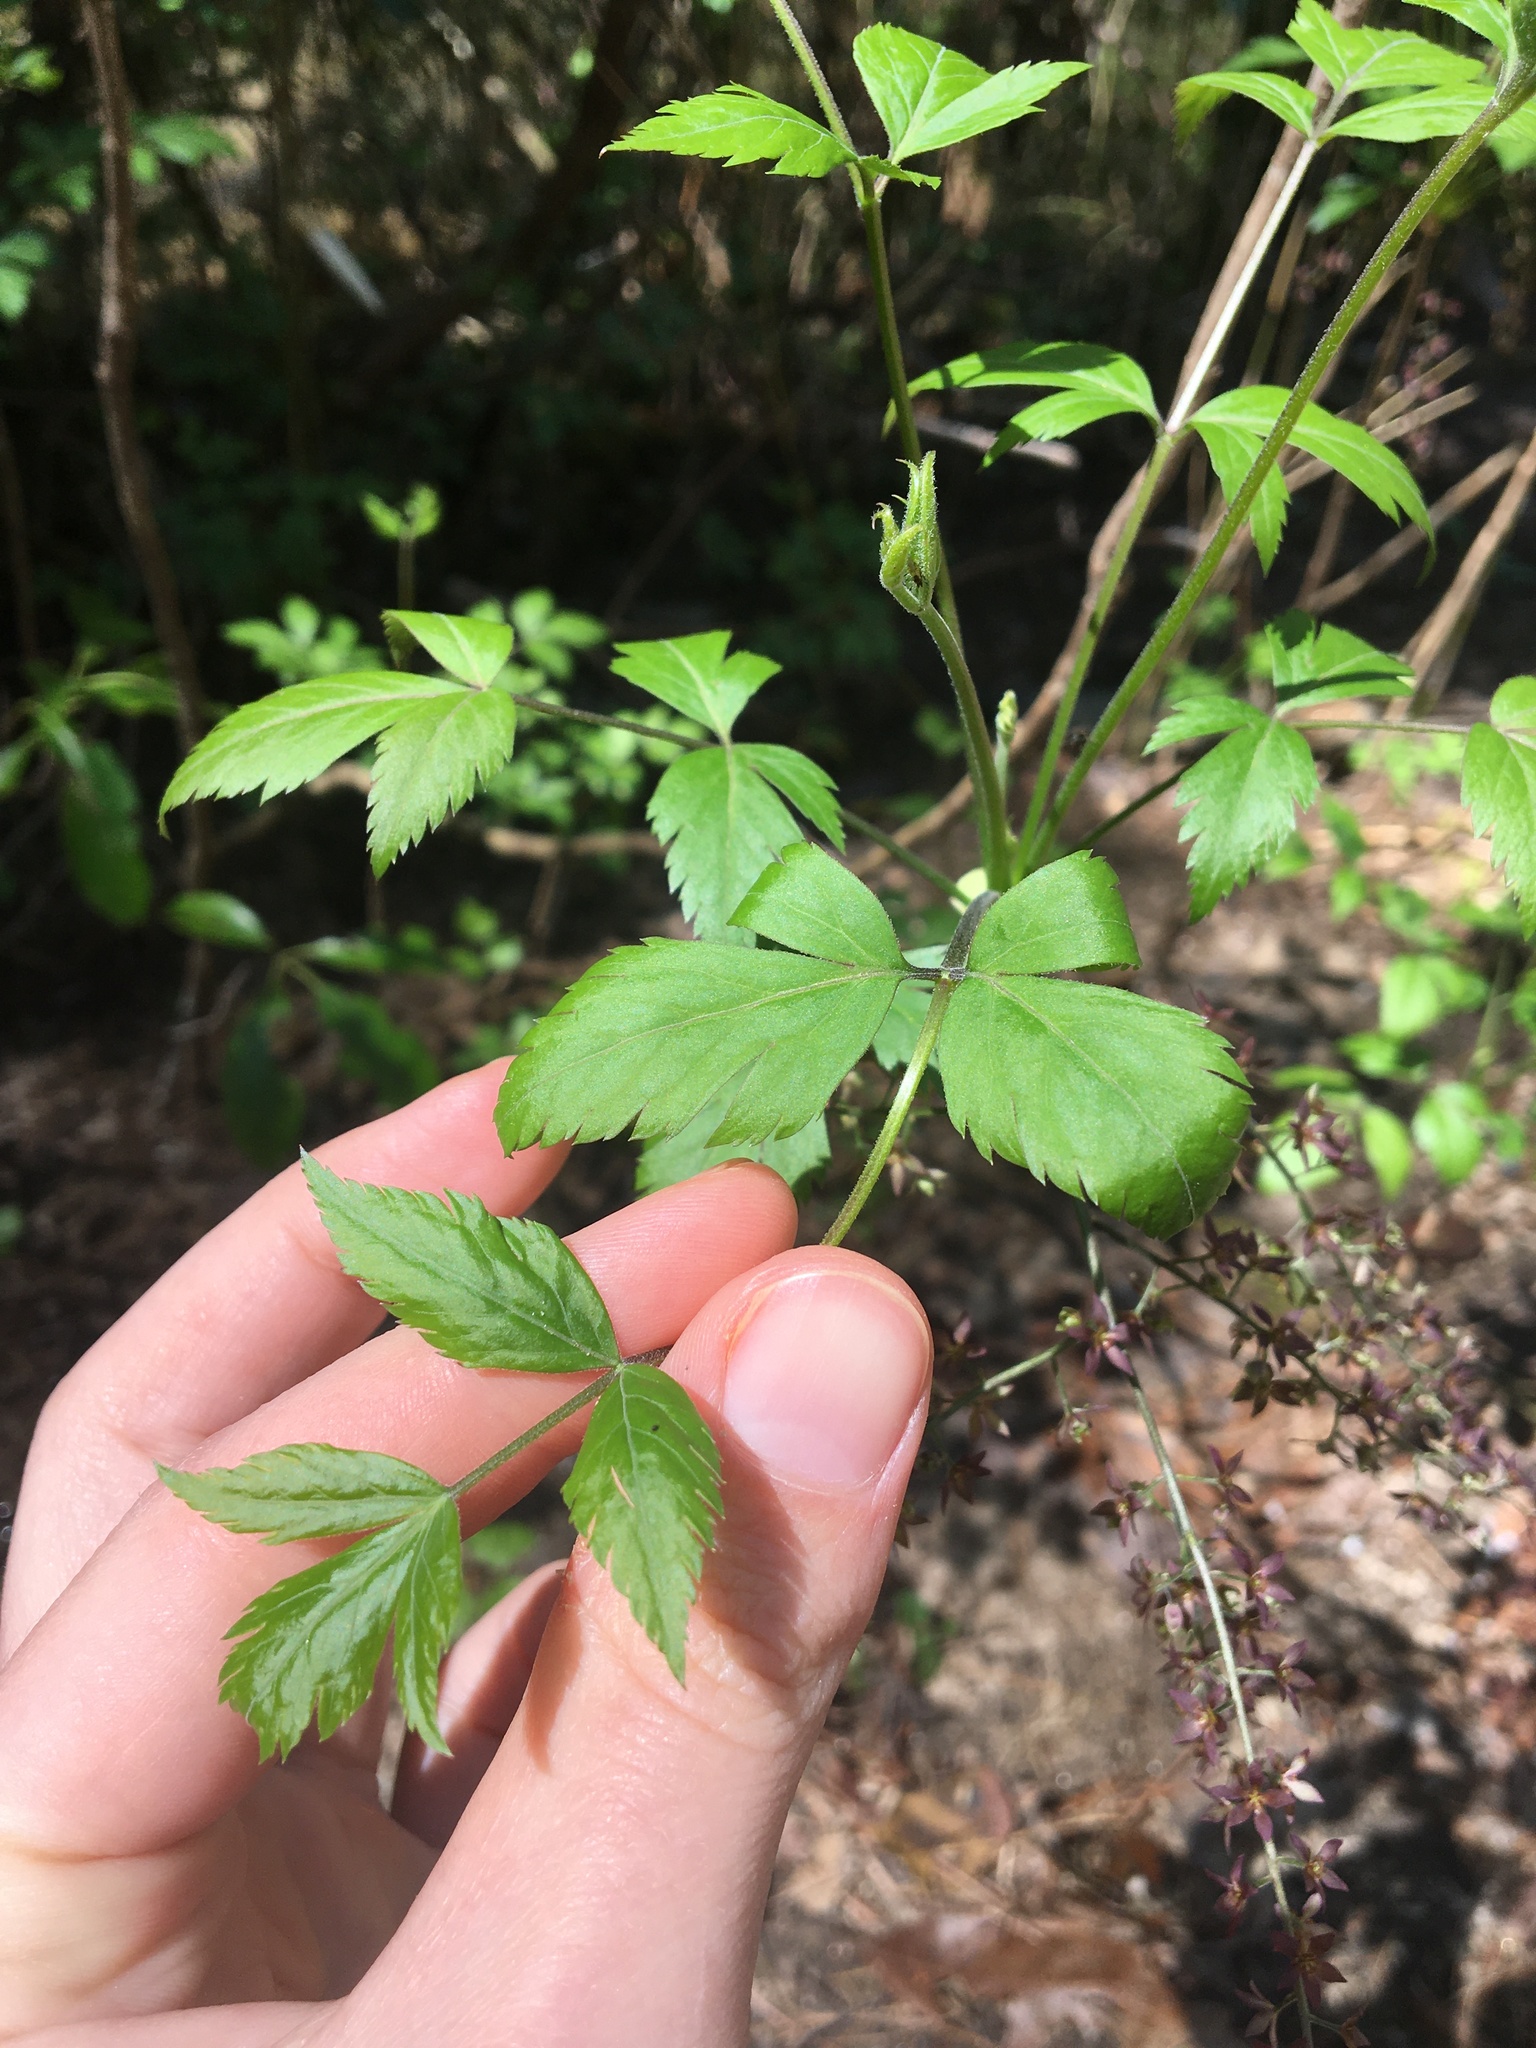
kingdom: Plantae
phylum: Tracheophyta
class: Magnoliopsida
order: Ranunculales
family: Ranunculaceae
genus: Xanthorhiza
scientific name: Xanthorhiza simplicissima
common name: Yellowroot
